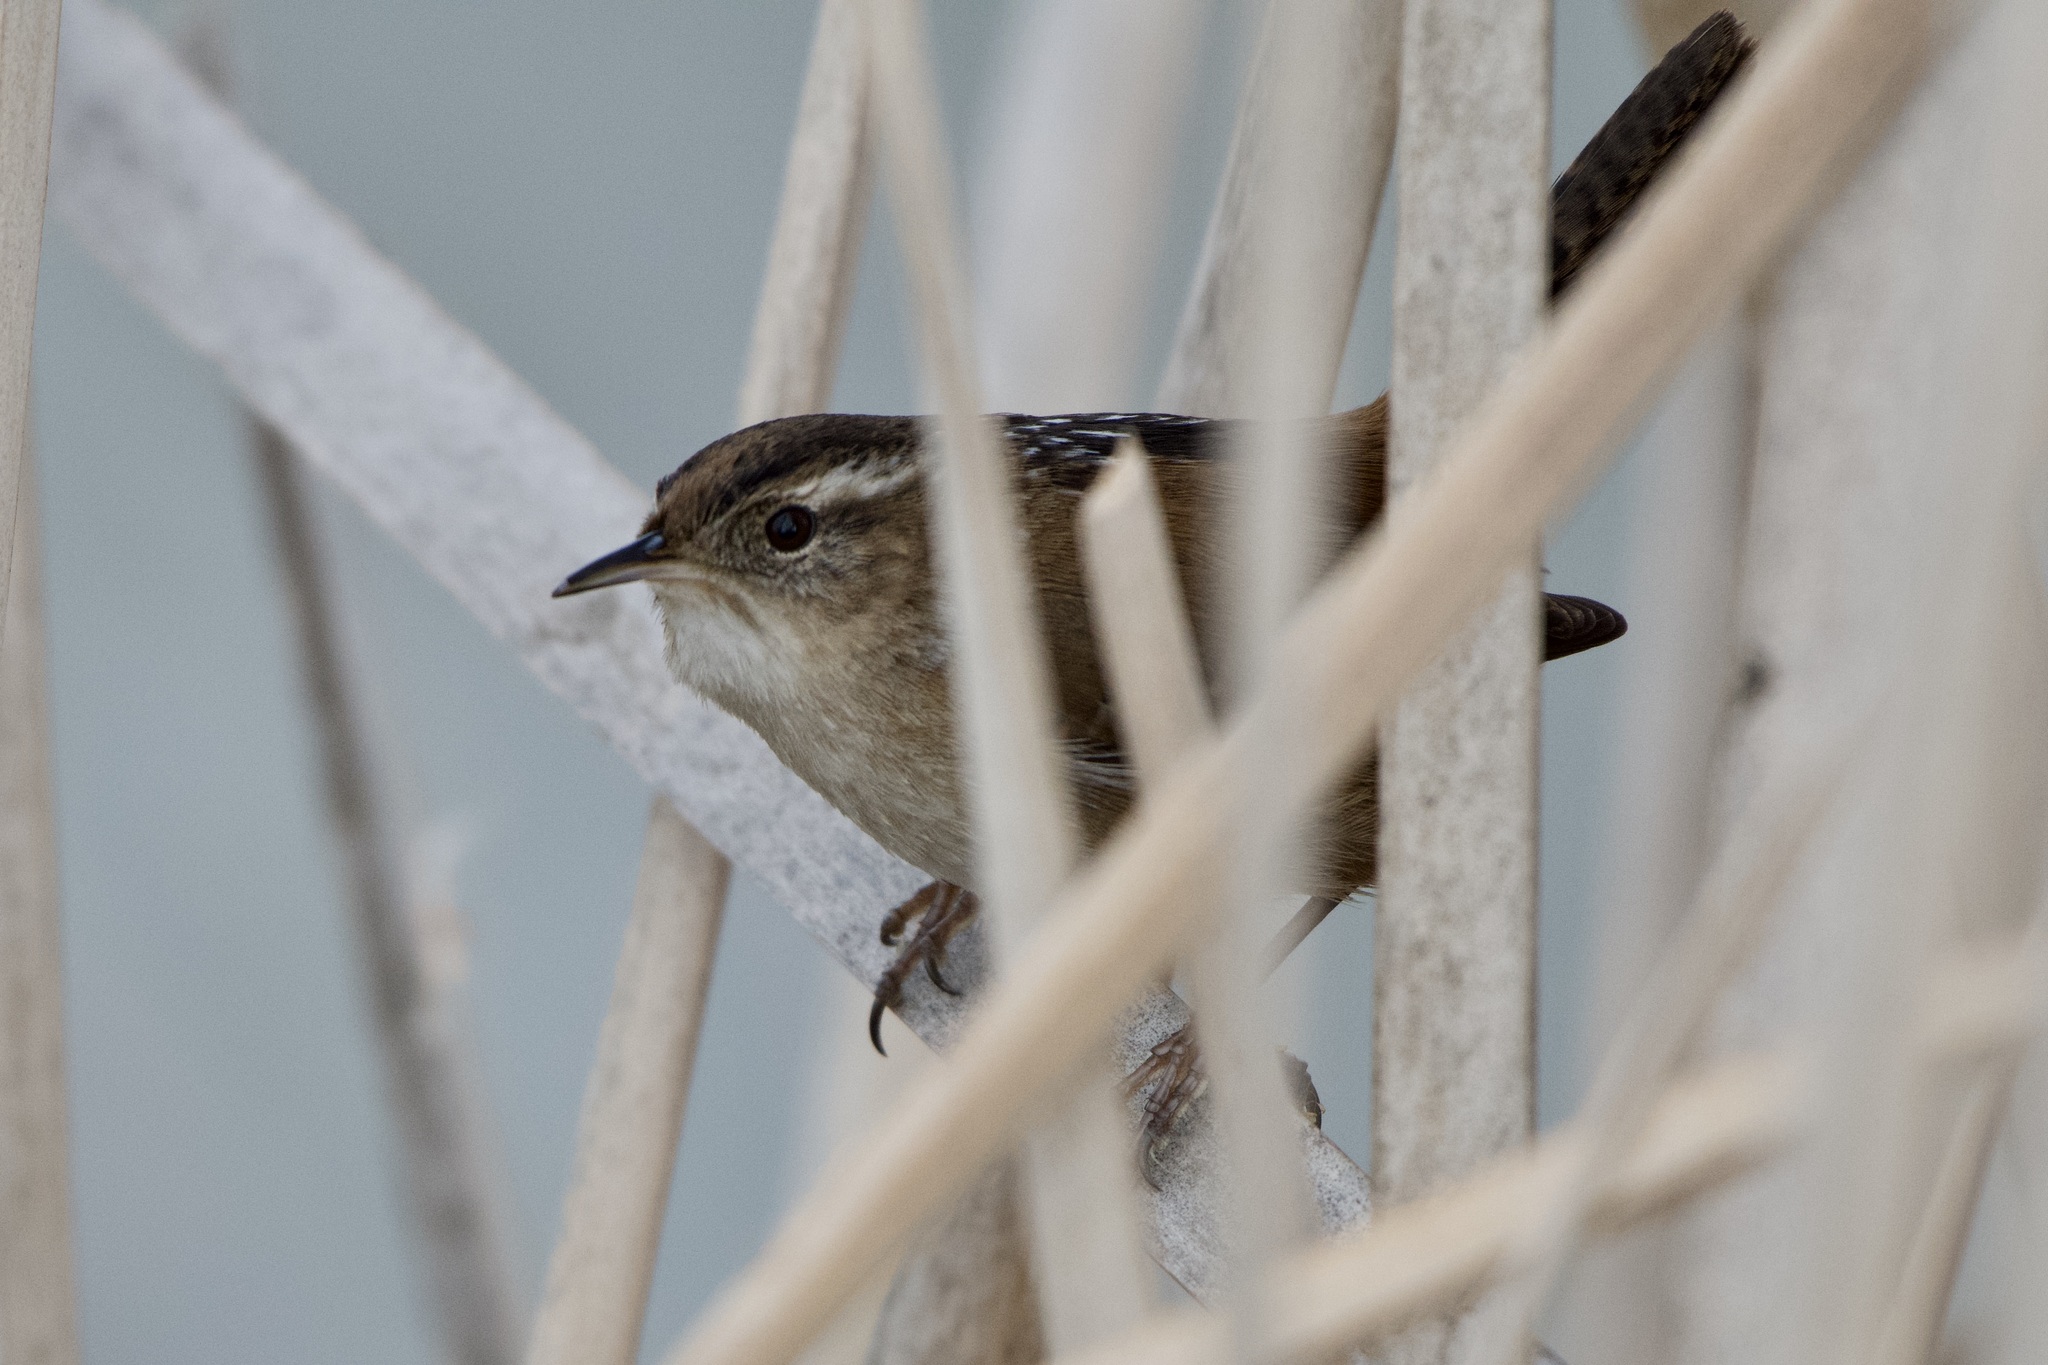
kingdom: Animalia
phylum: Chordata
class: Aves
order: Passeriformes
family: Troglodytidae
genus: Cistothorus
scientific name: Cistothorus palustris
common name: Marsh wren
